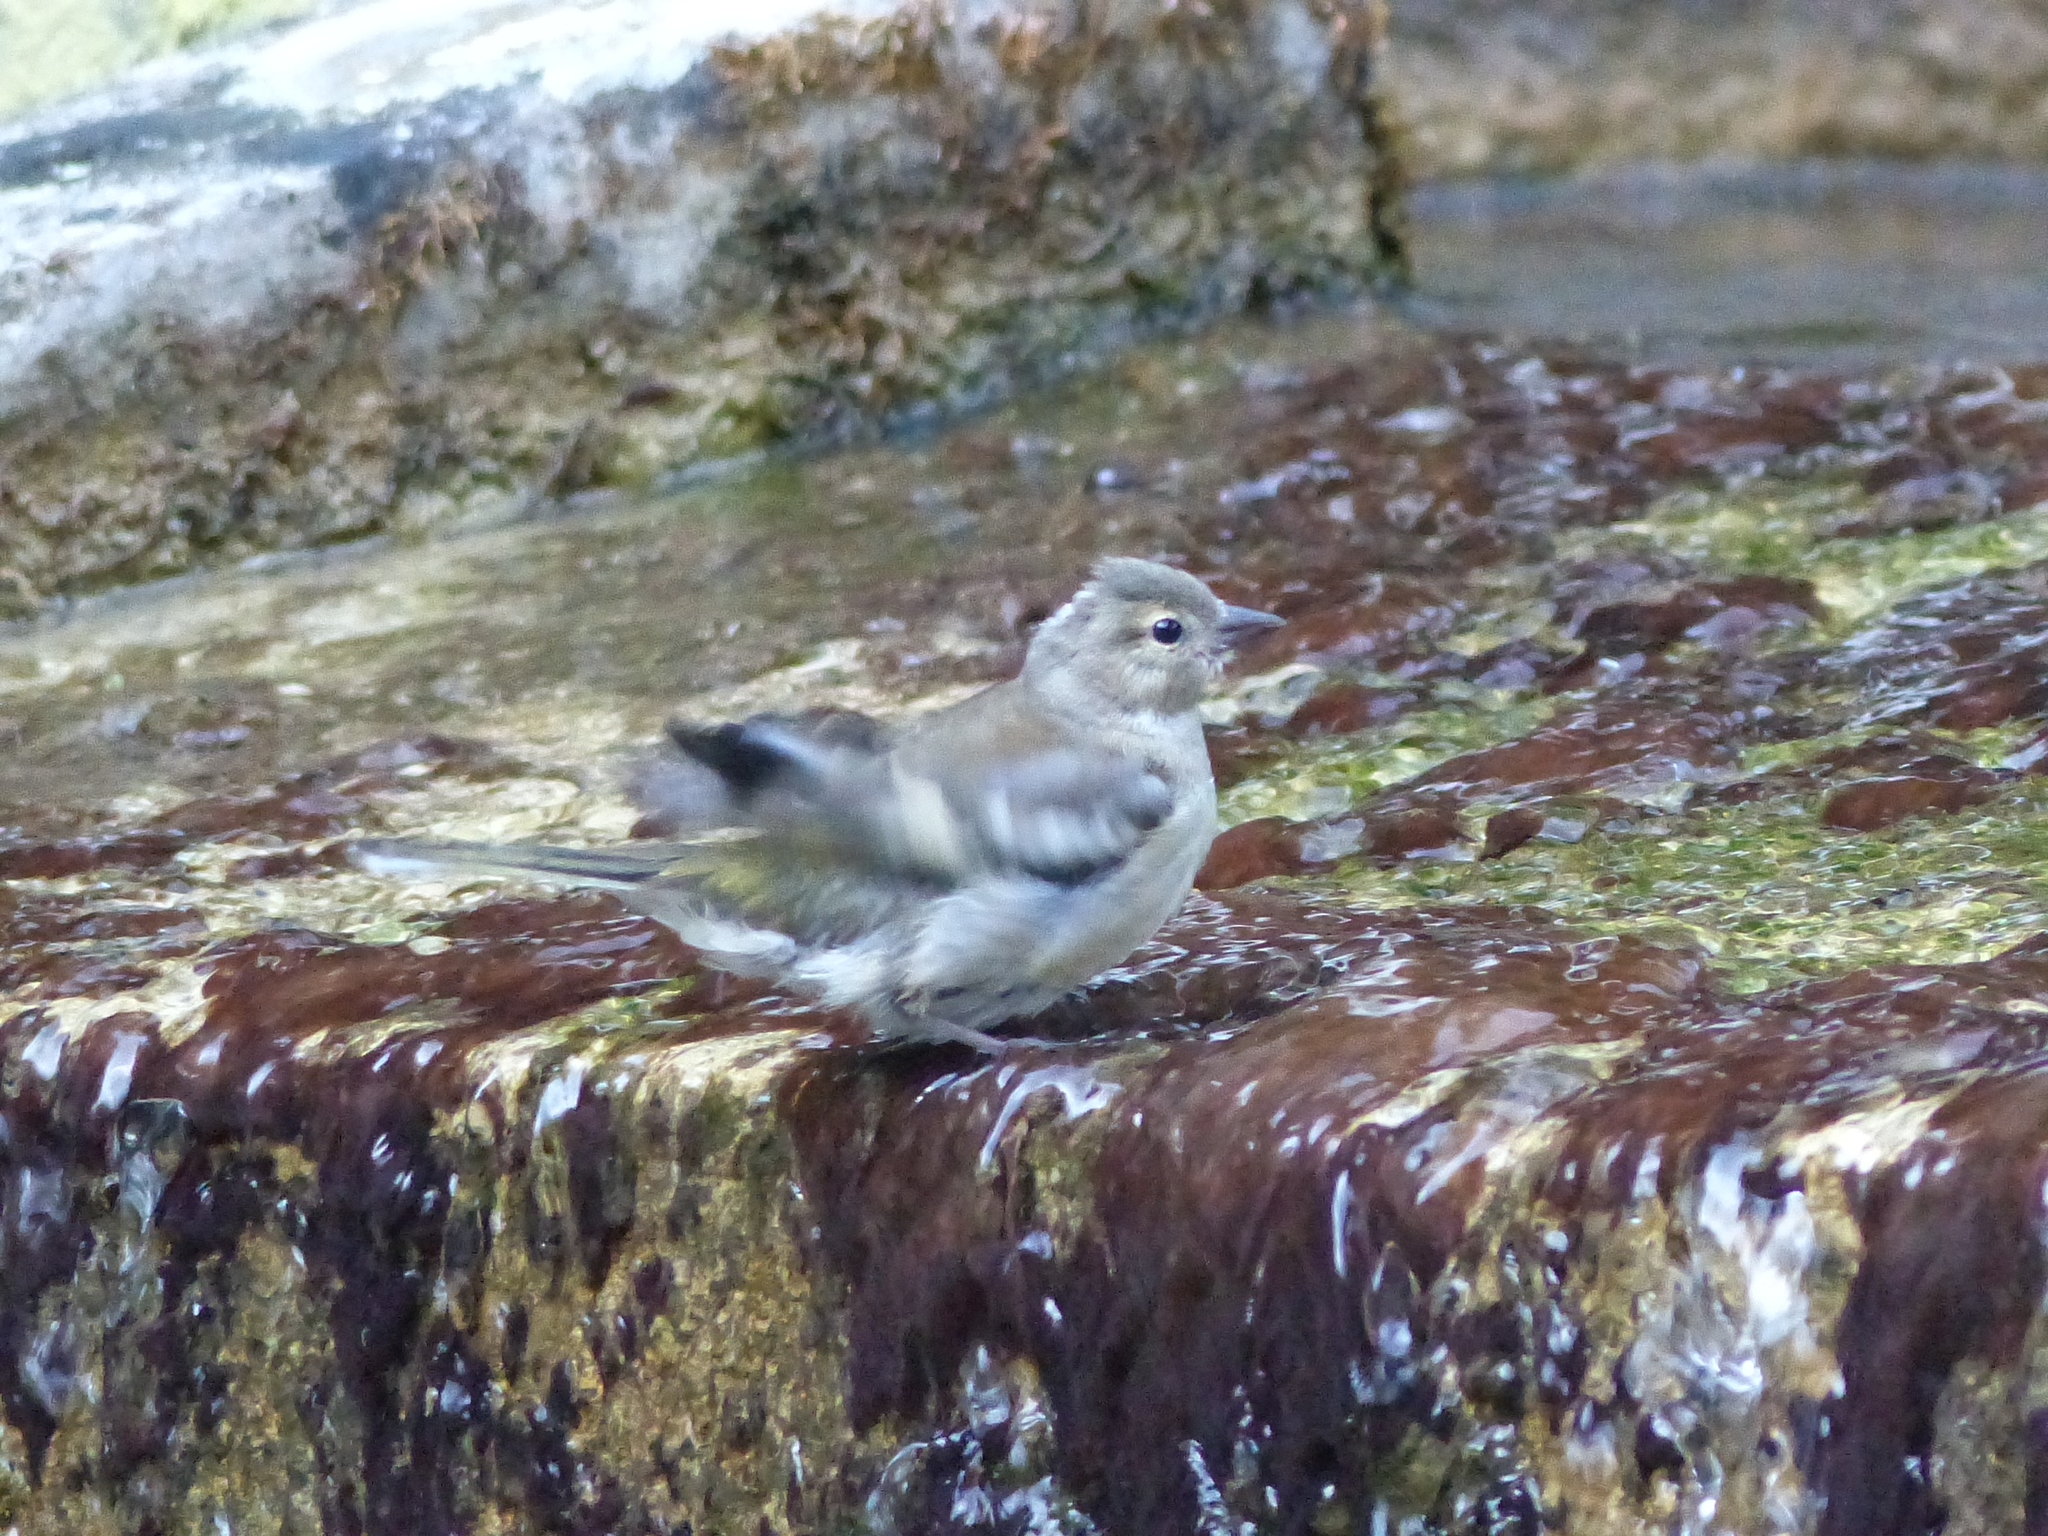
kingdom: Animalia
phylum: Chordata
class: Aves
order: Passeriformes
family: Fringillidae
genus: Fringilla
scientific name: Fringilla coelebs
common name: Common chaffinch
